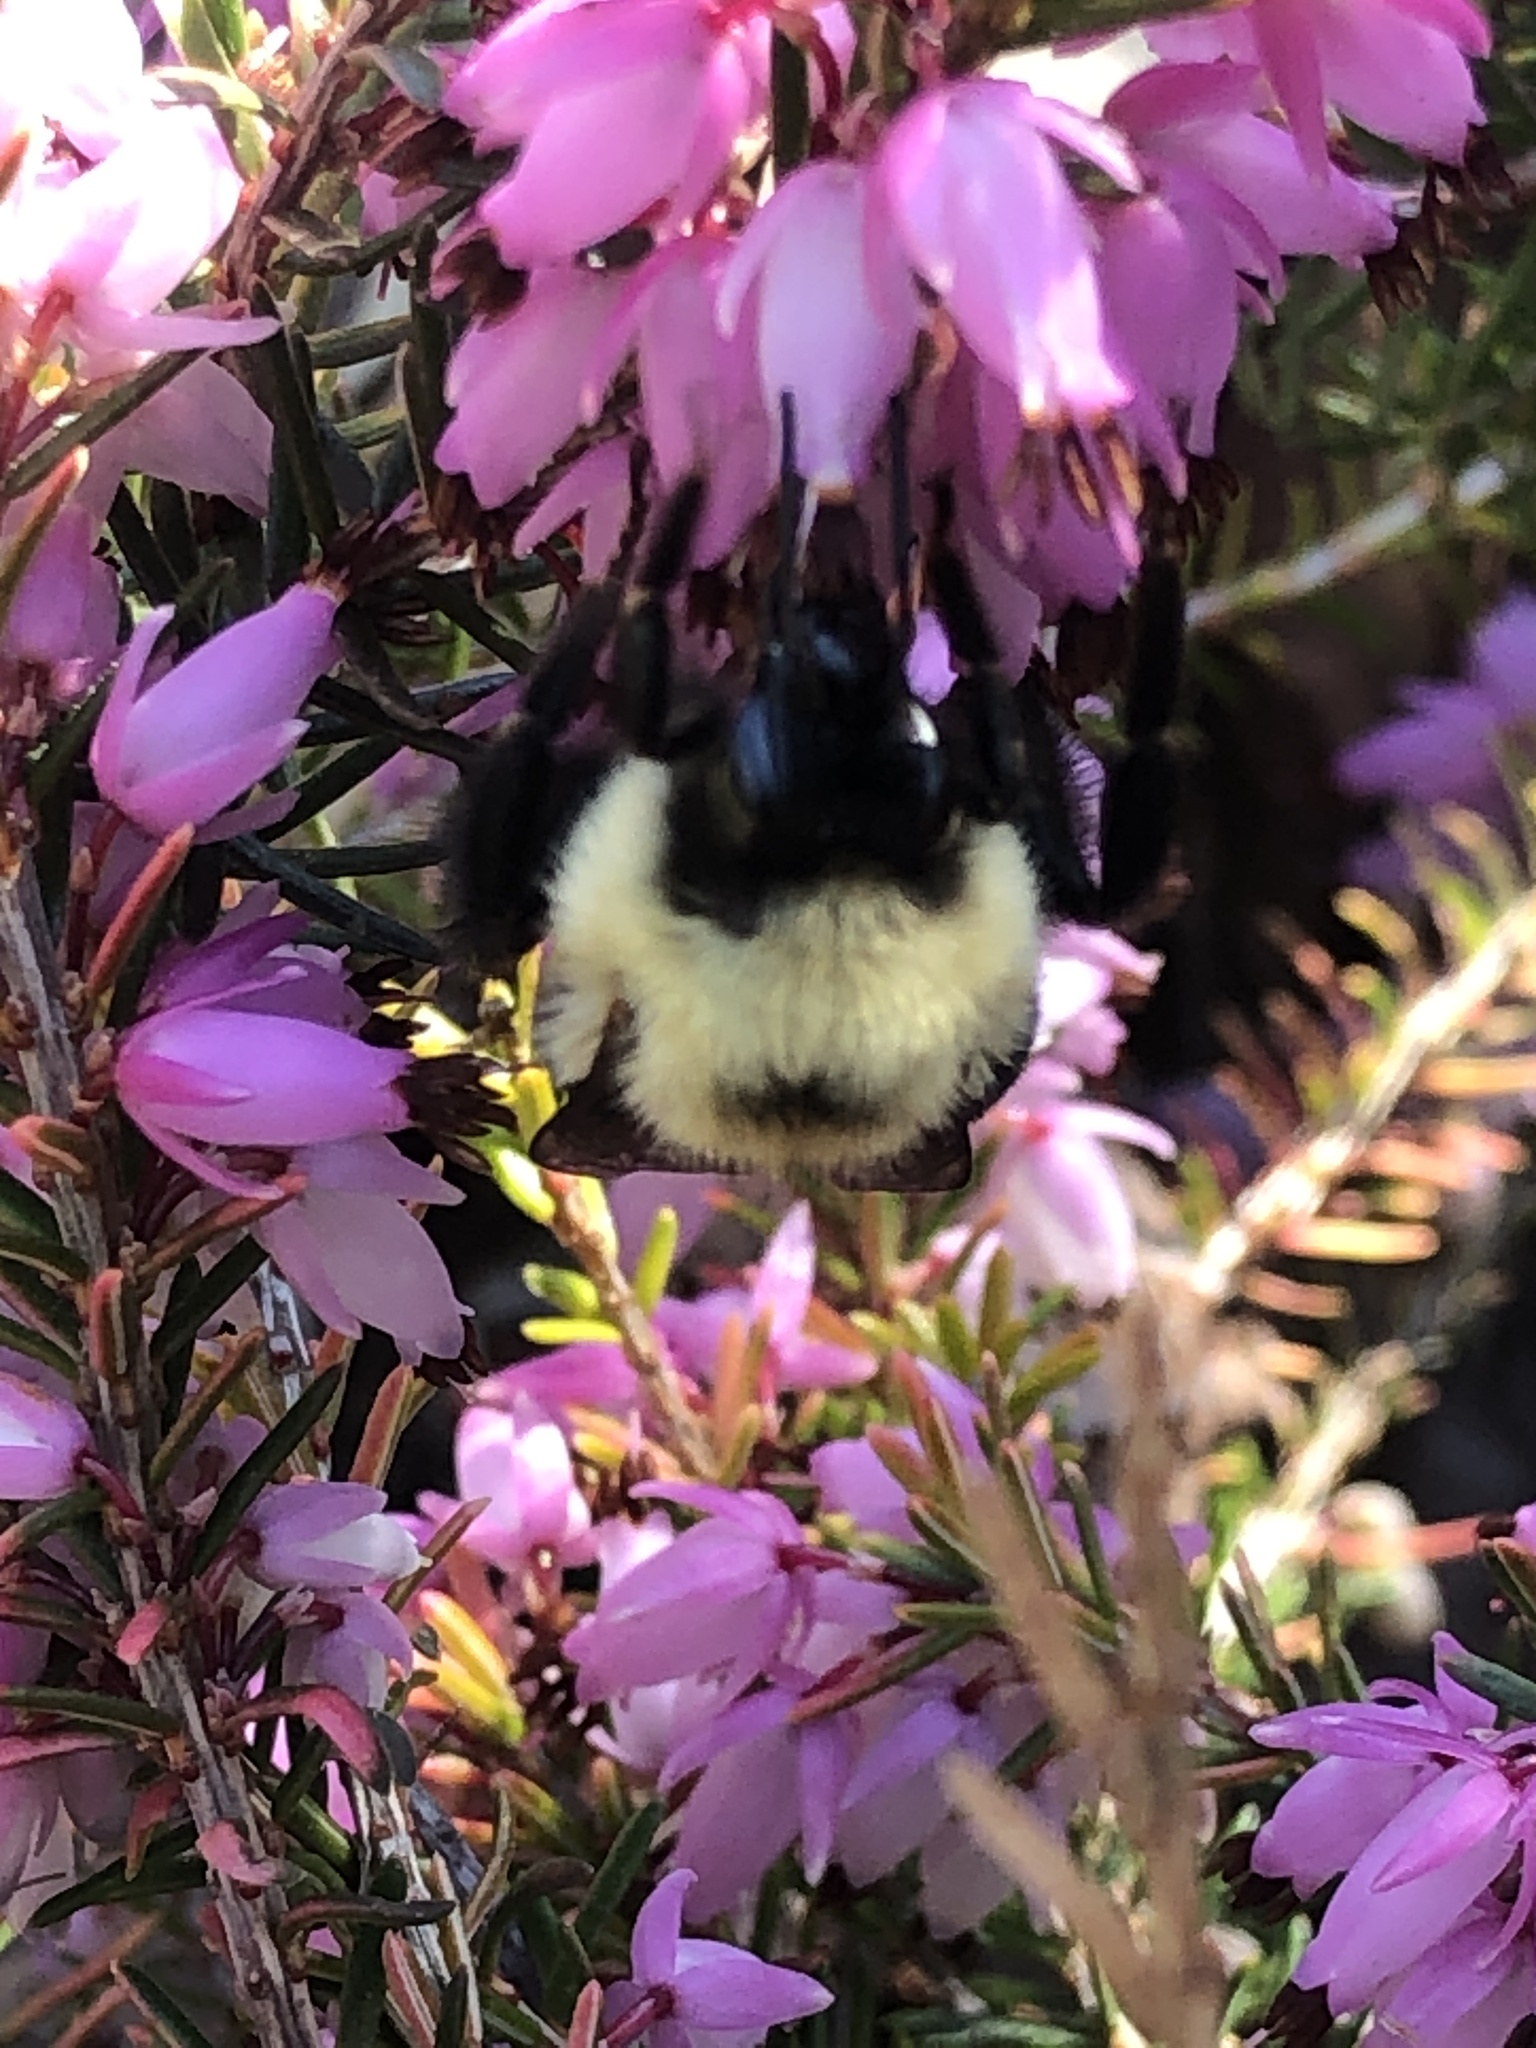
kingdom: Animalia
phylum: Arthropoda
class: Insecta
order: Hymenoptera
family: Apidae
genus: Pyrobombus
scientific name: Pyrobombus
